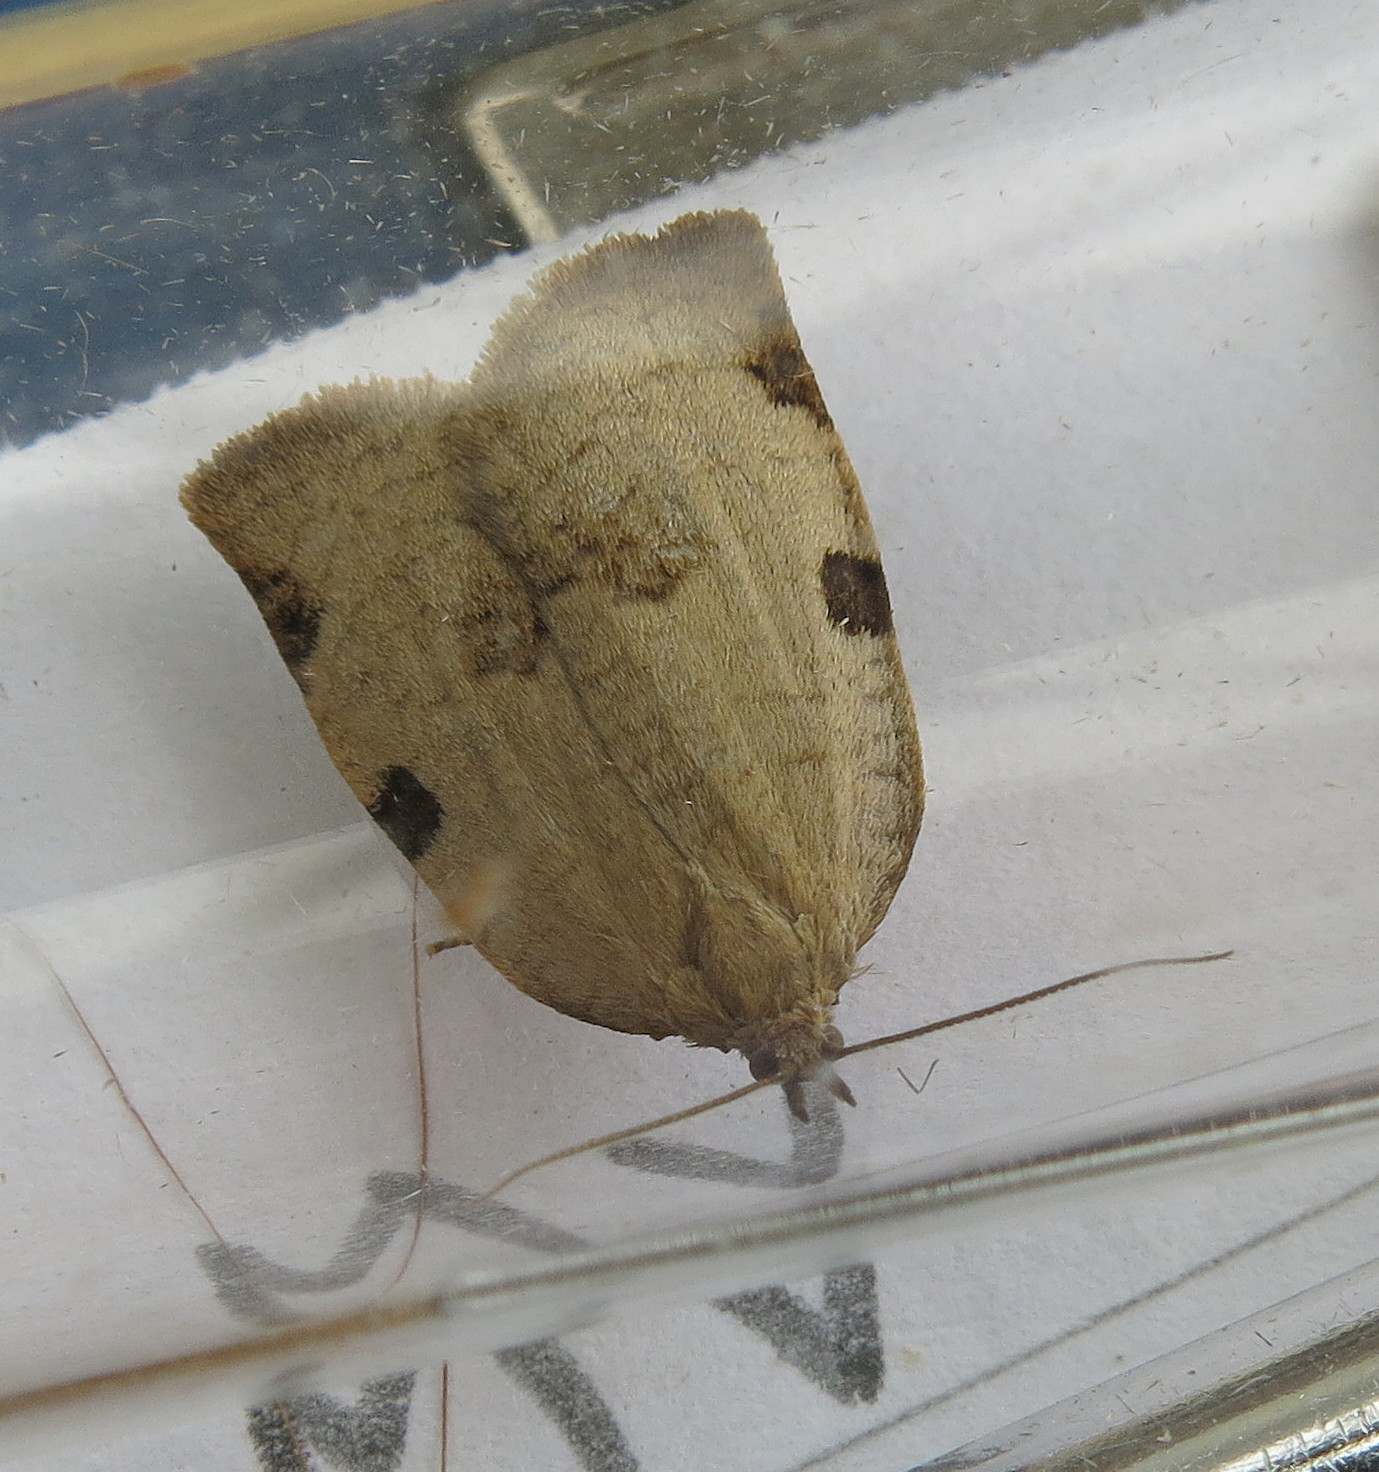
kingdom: Animalia
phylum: Arthropoda
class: Insecta
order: Lepidoptera
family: Tortricidae
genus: Lozotaenia
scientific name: Lozotaenia forsterana
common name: Large ivy twist
